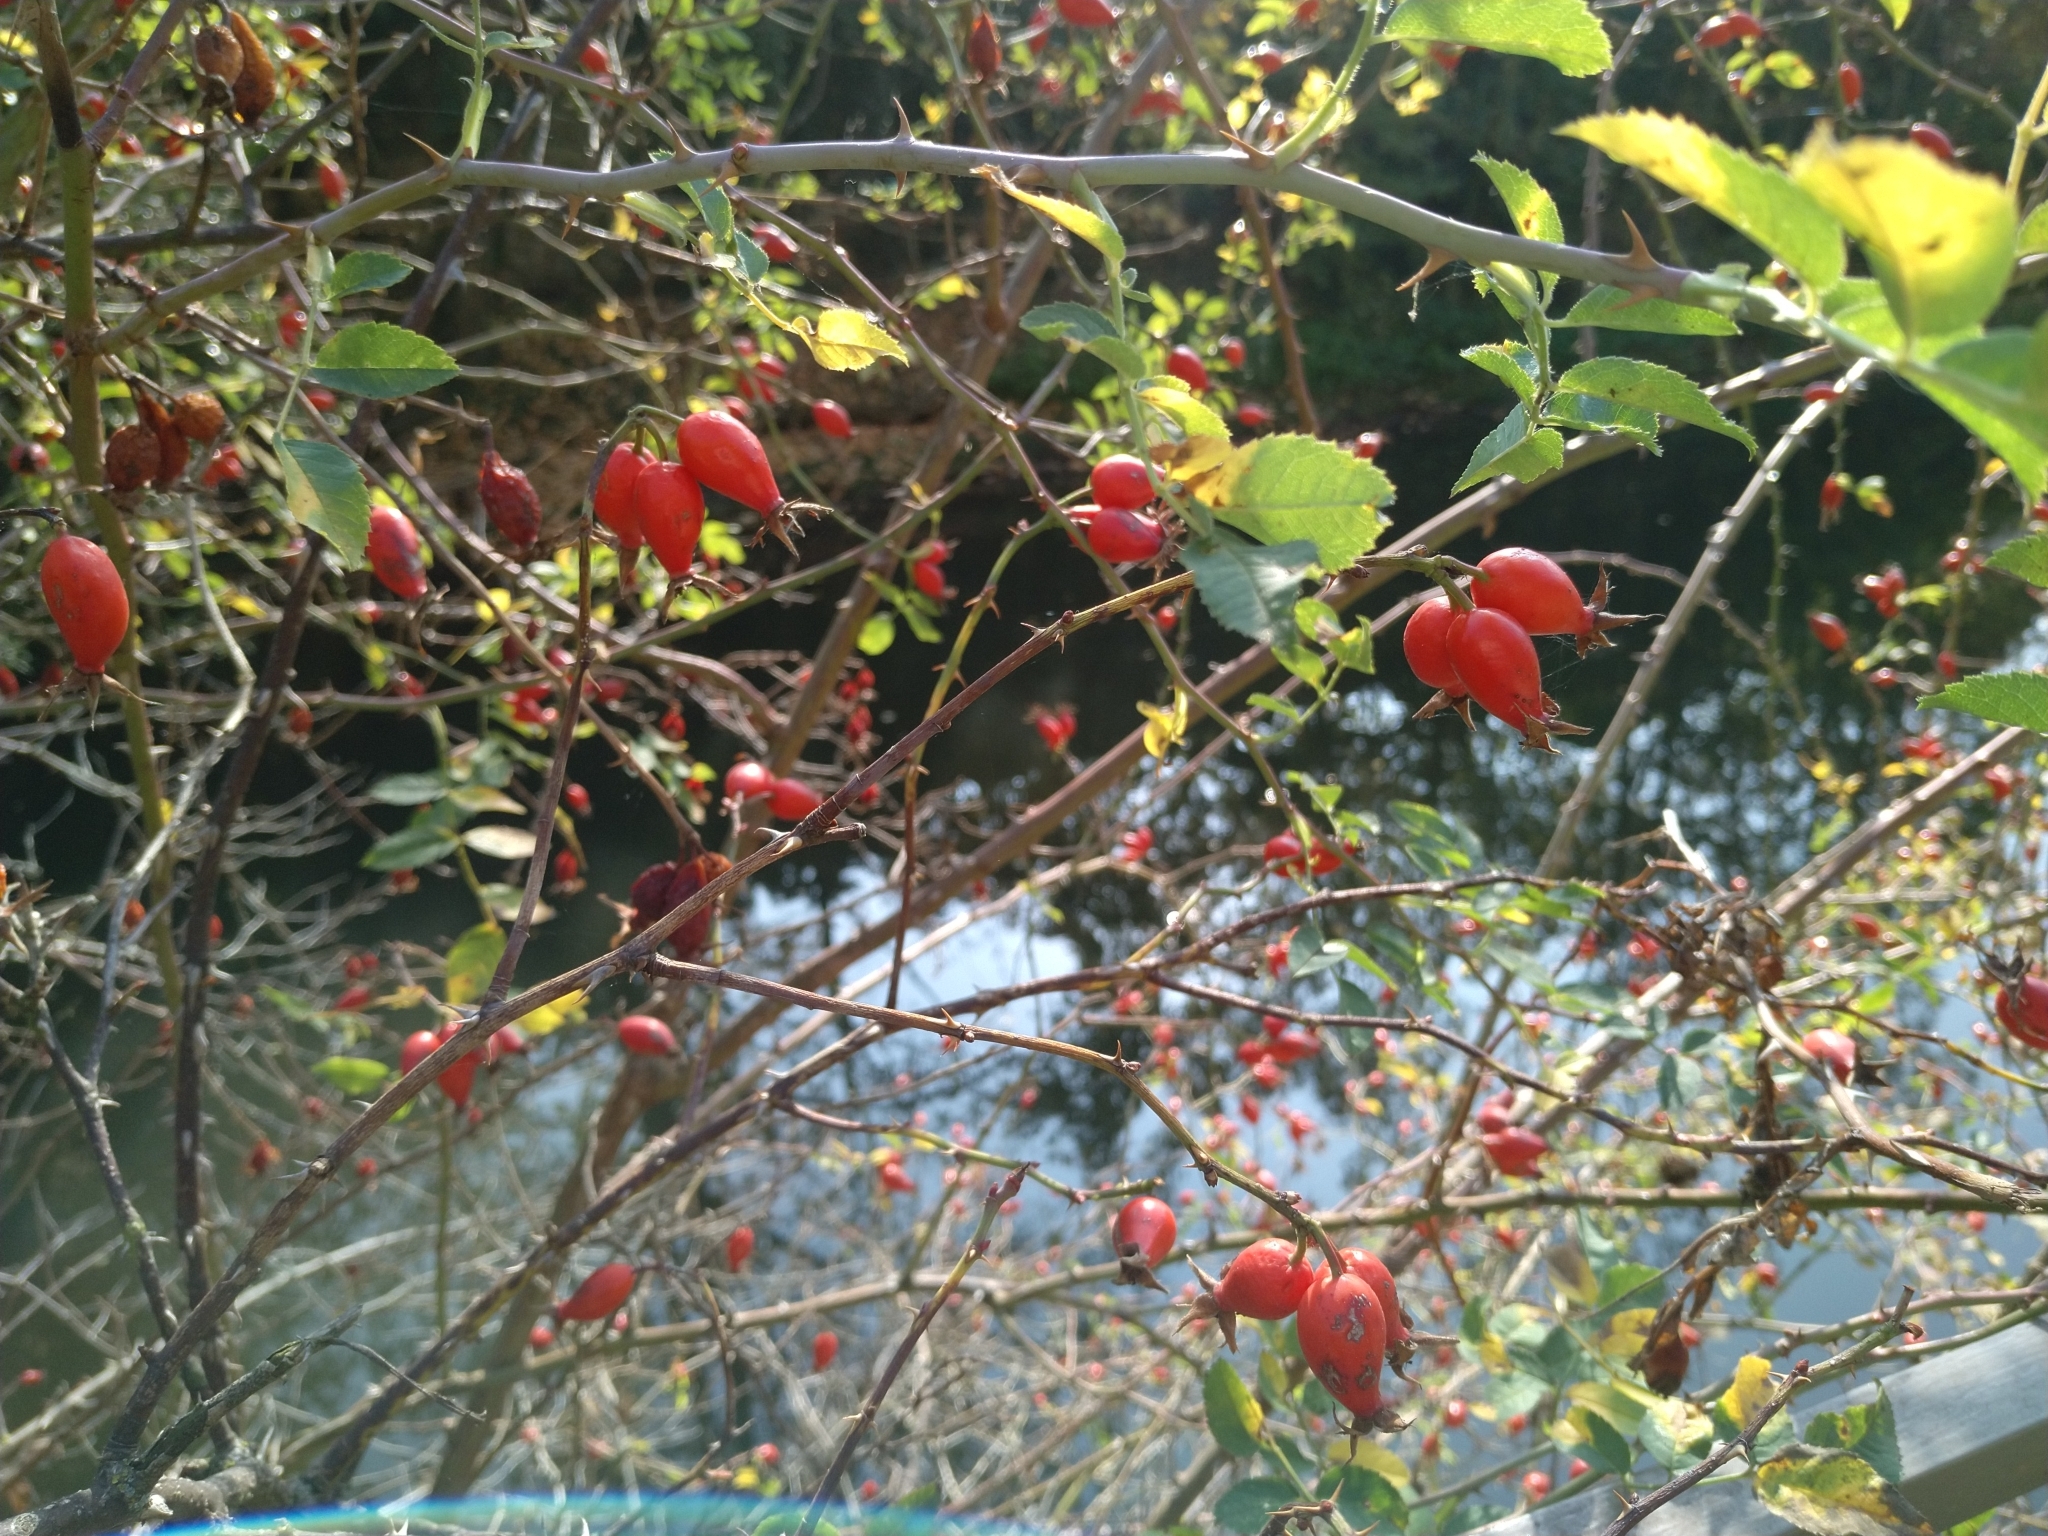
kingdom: Plantae
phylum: Tracheophyta
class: Magnoliopsida
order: Rosales
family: Rosaceae
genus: Rosa
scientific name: Rosa canina
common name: Dog rose
